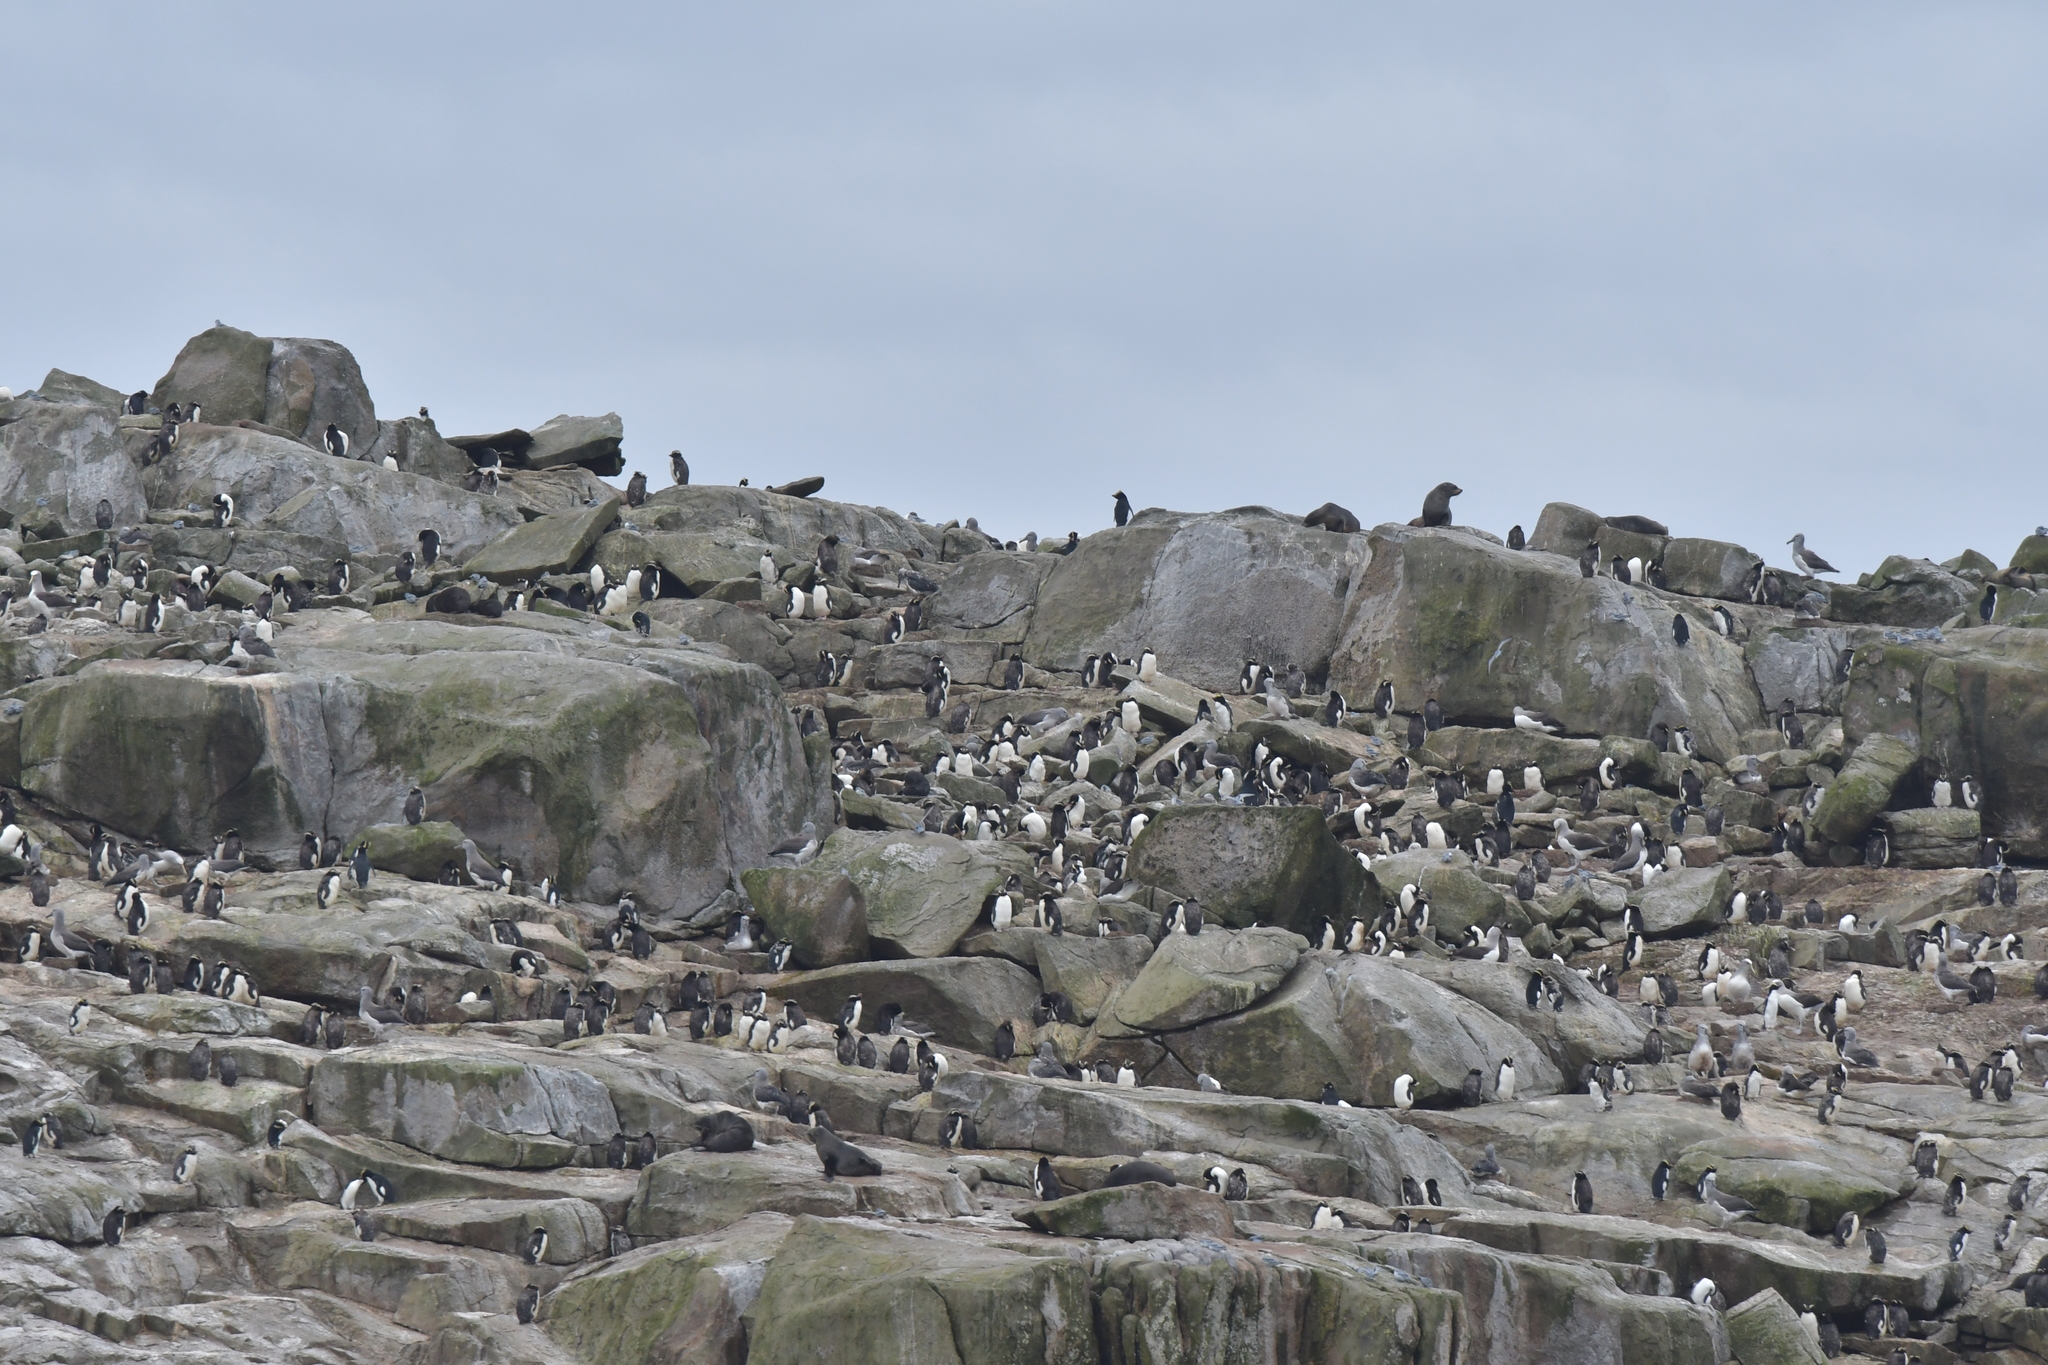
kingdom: Animalia
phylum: Chordata
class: Aves
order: Procellariiformes
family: Procellariidae
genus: Pachyptila
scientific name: Pachyptila crassirostris
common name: Fulmar prion
